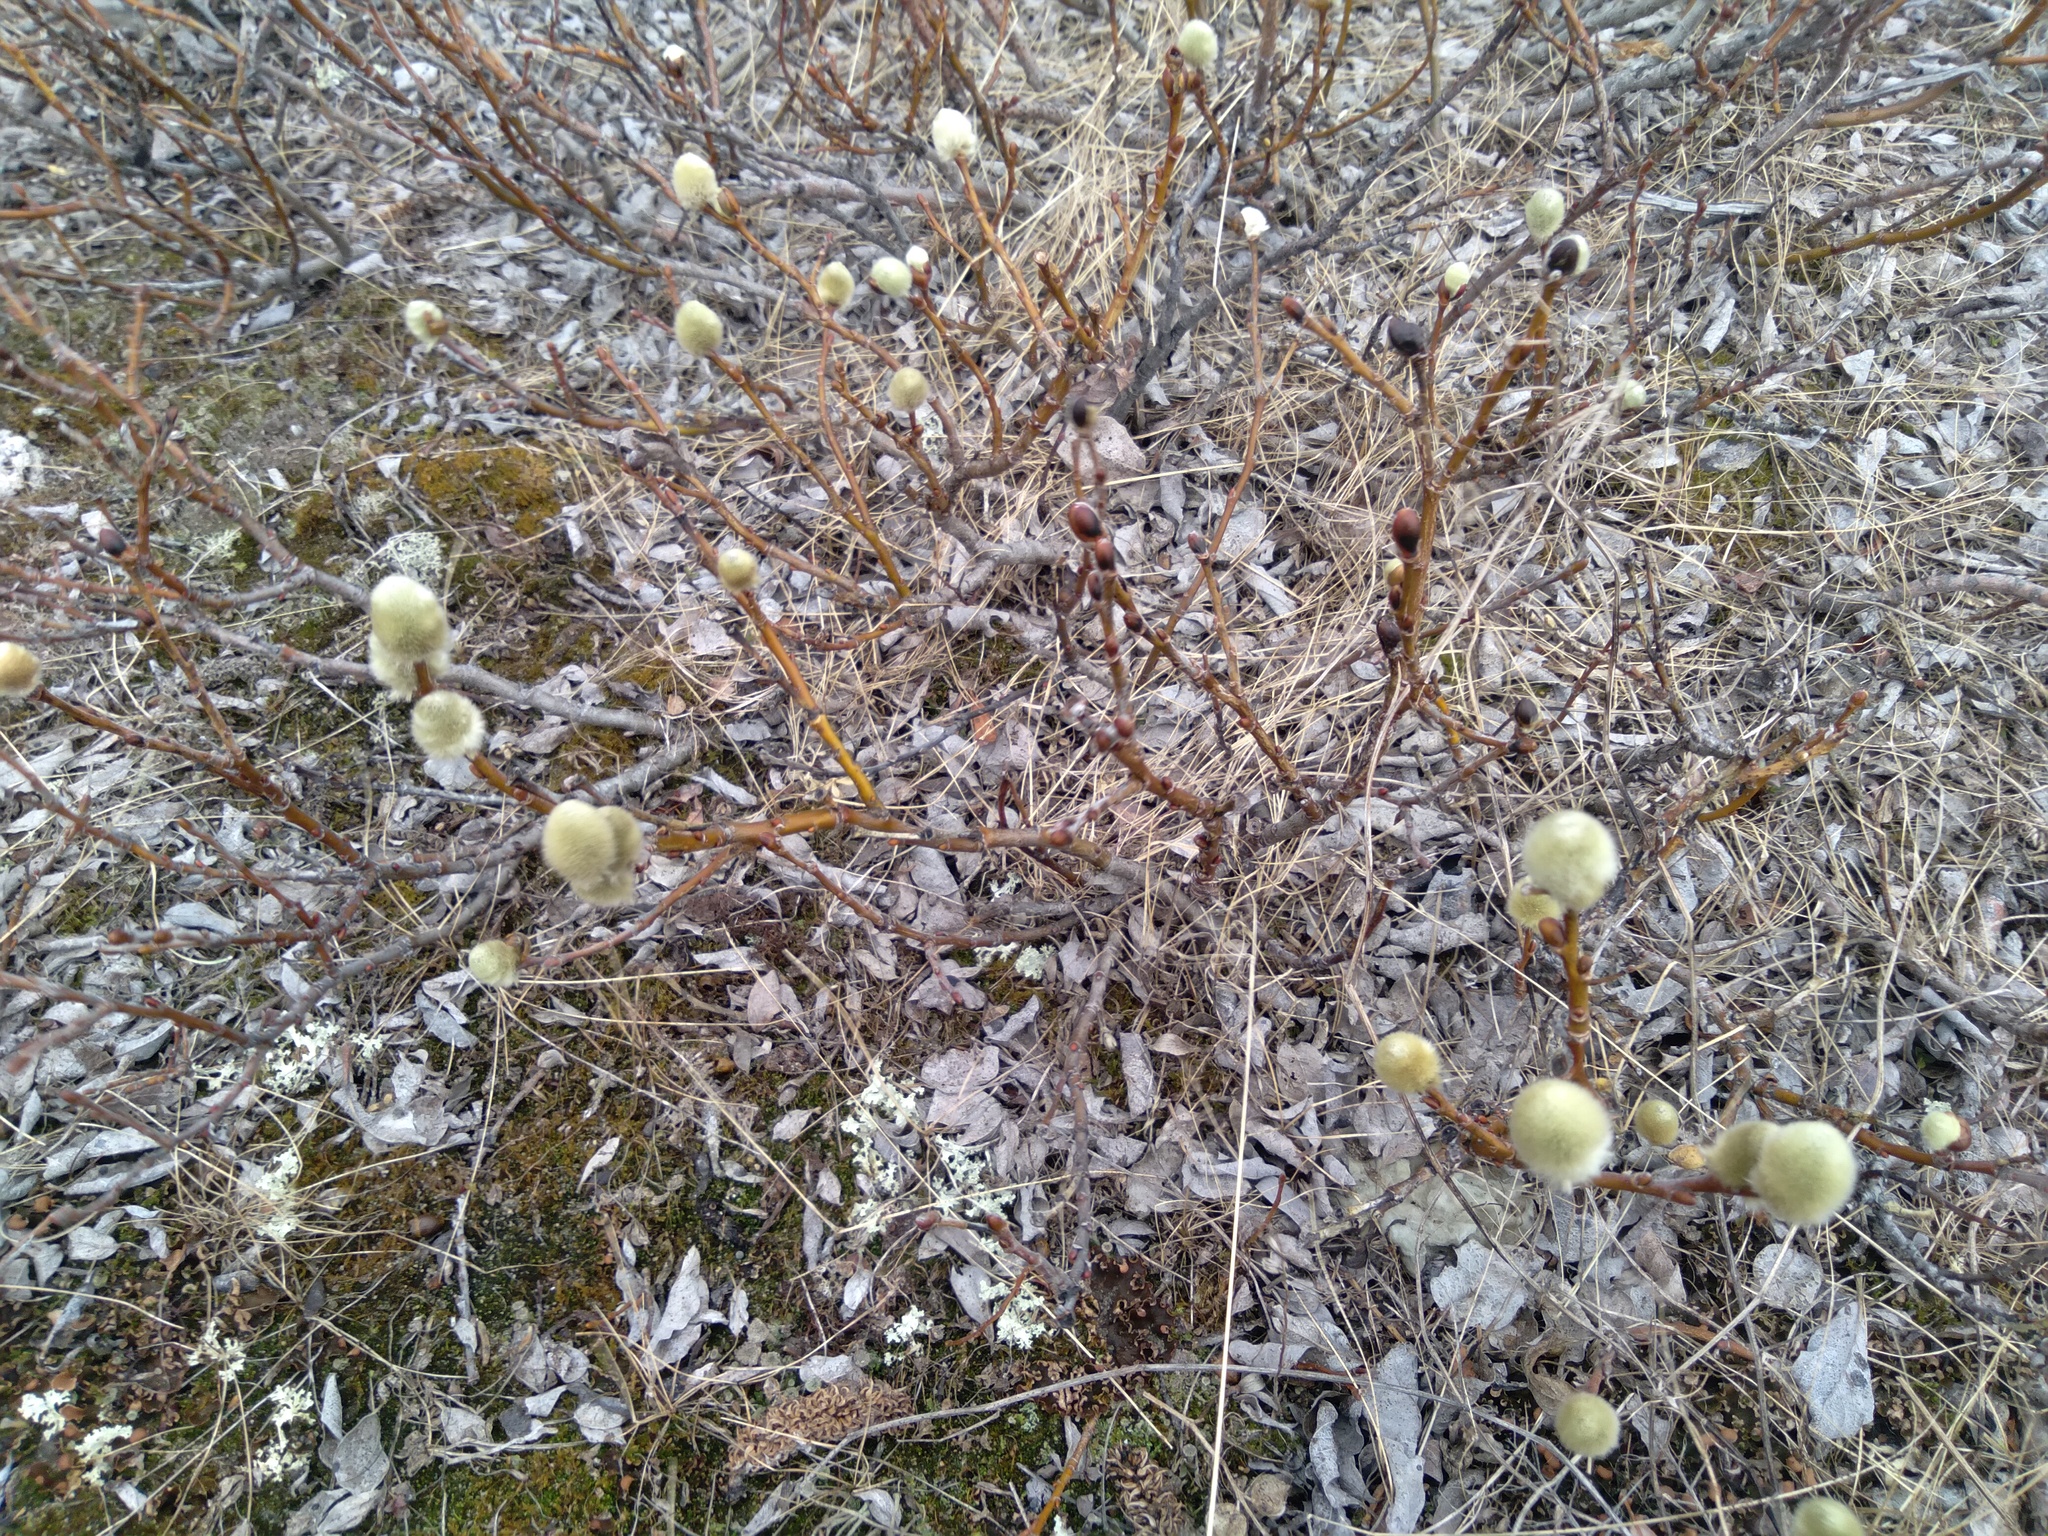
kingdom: Plantae
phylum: Tracheophyta
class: Magnoliopsida
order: Malpighiales
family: Salicaceae
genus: Salix
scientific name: Salix lanata
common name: Woolly willow
